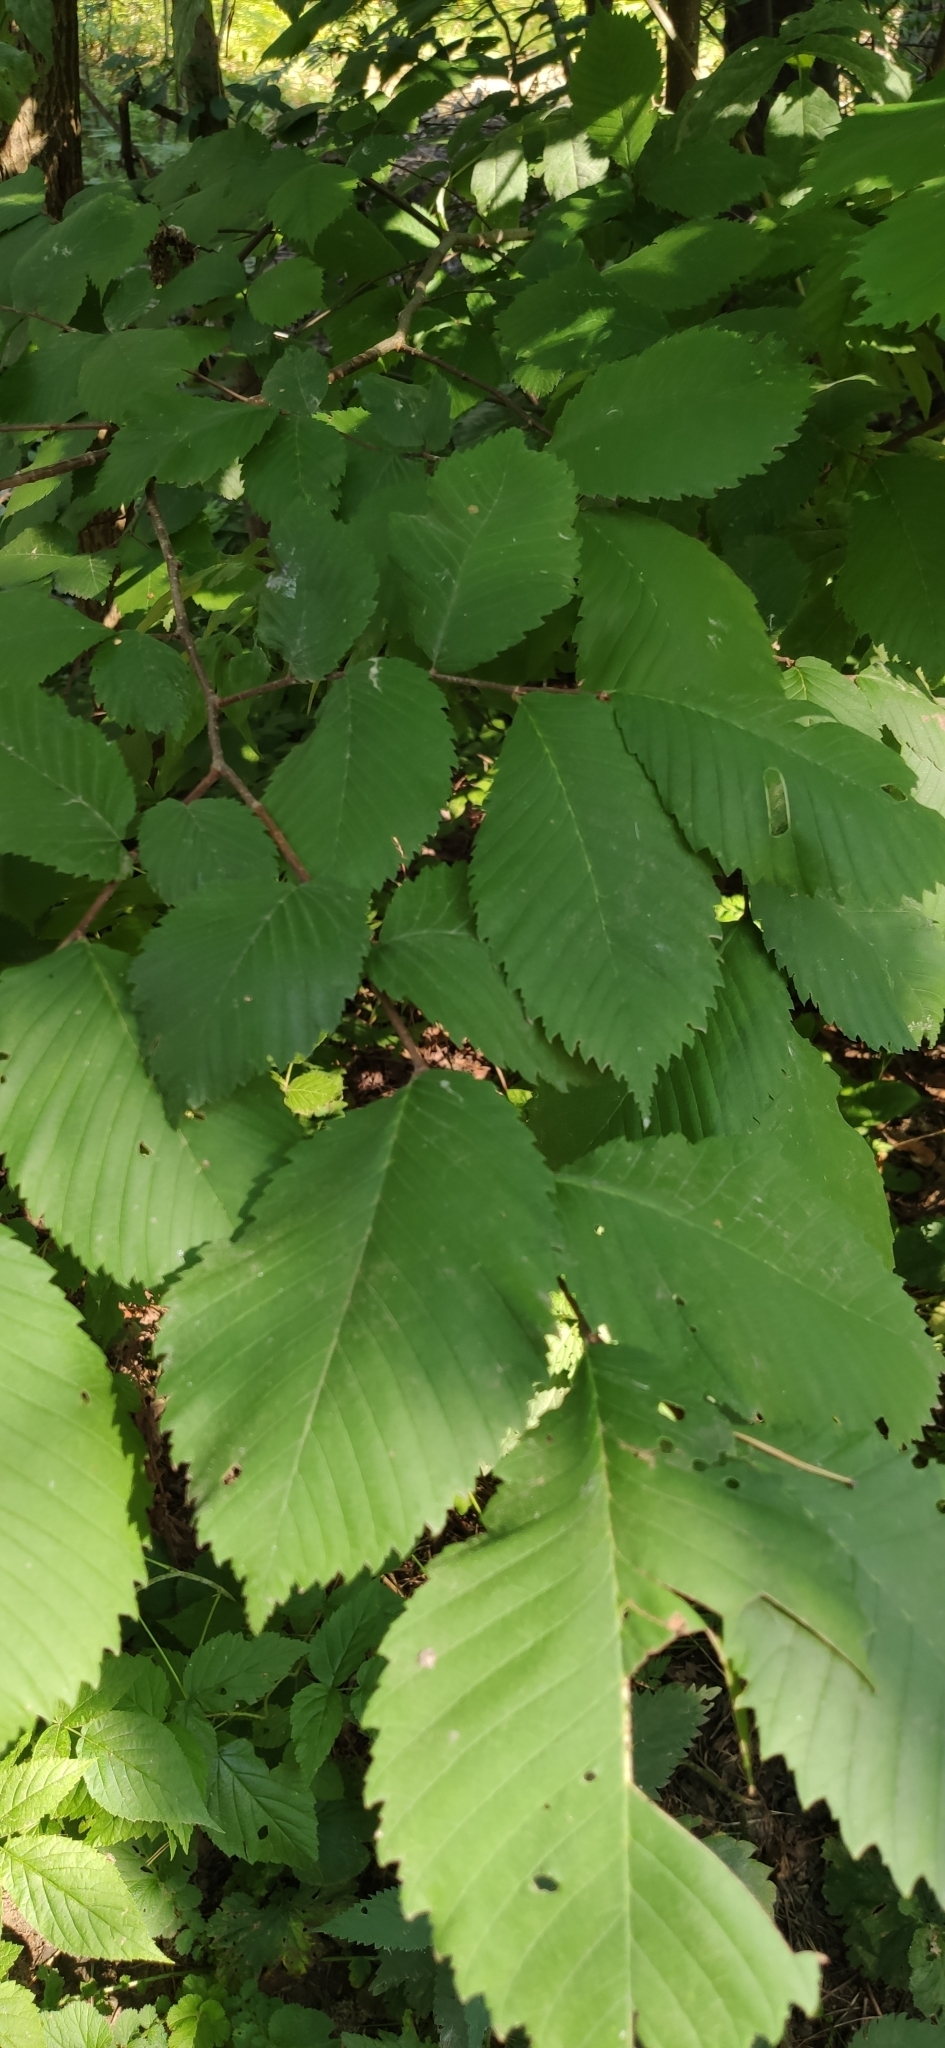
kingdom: Plantae
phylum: Tracheophyta
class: Magnoliopsida
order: Rosales
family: Ulmaceae
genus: Ulmus
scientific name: Ulmus laevis
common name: European white-elm
